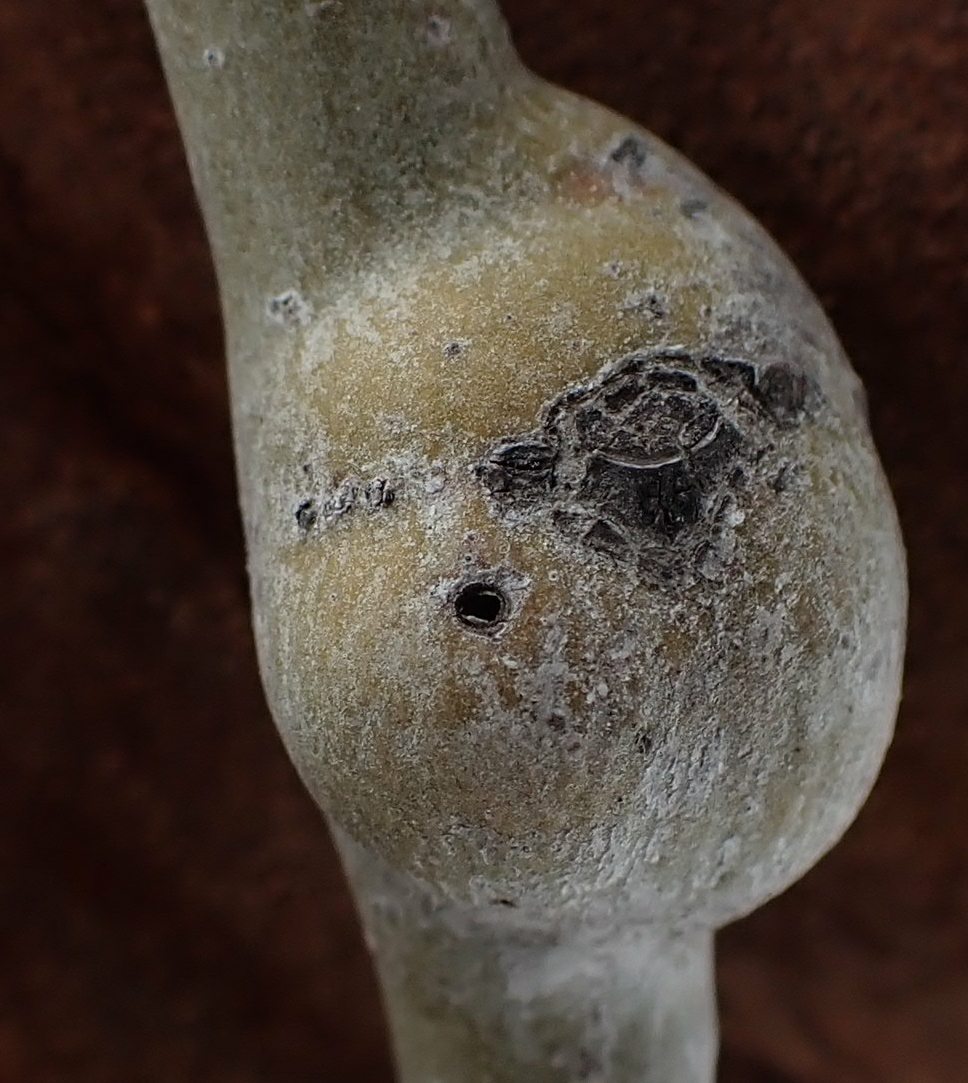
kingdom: Animalia
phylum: Arthropoda
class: Insecta
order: Diptera
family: Agromyzidae
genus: Euhexomyza
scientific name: Euhexomyza schineri
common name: Poplar twiggall fly
